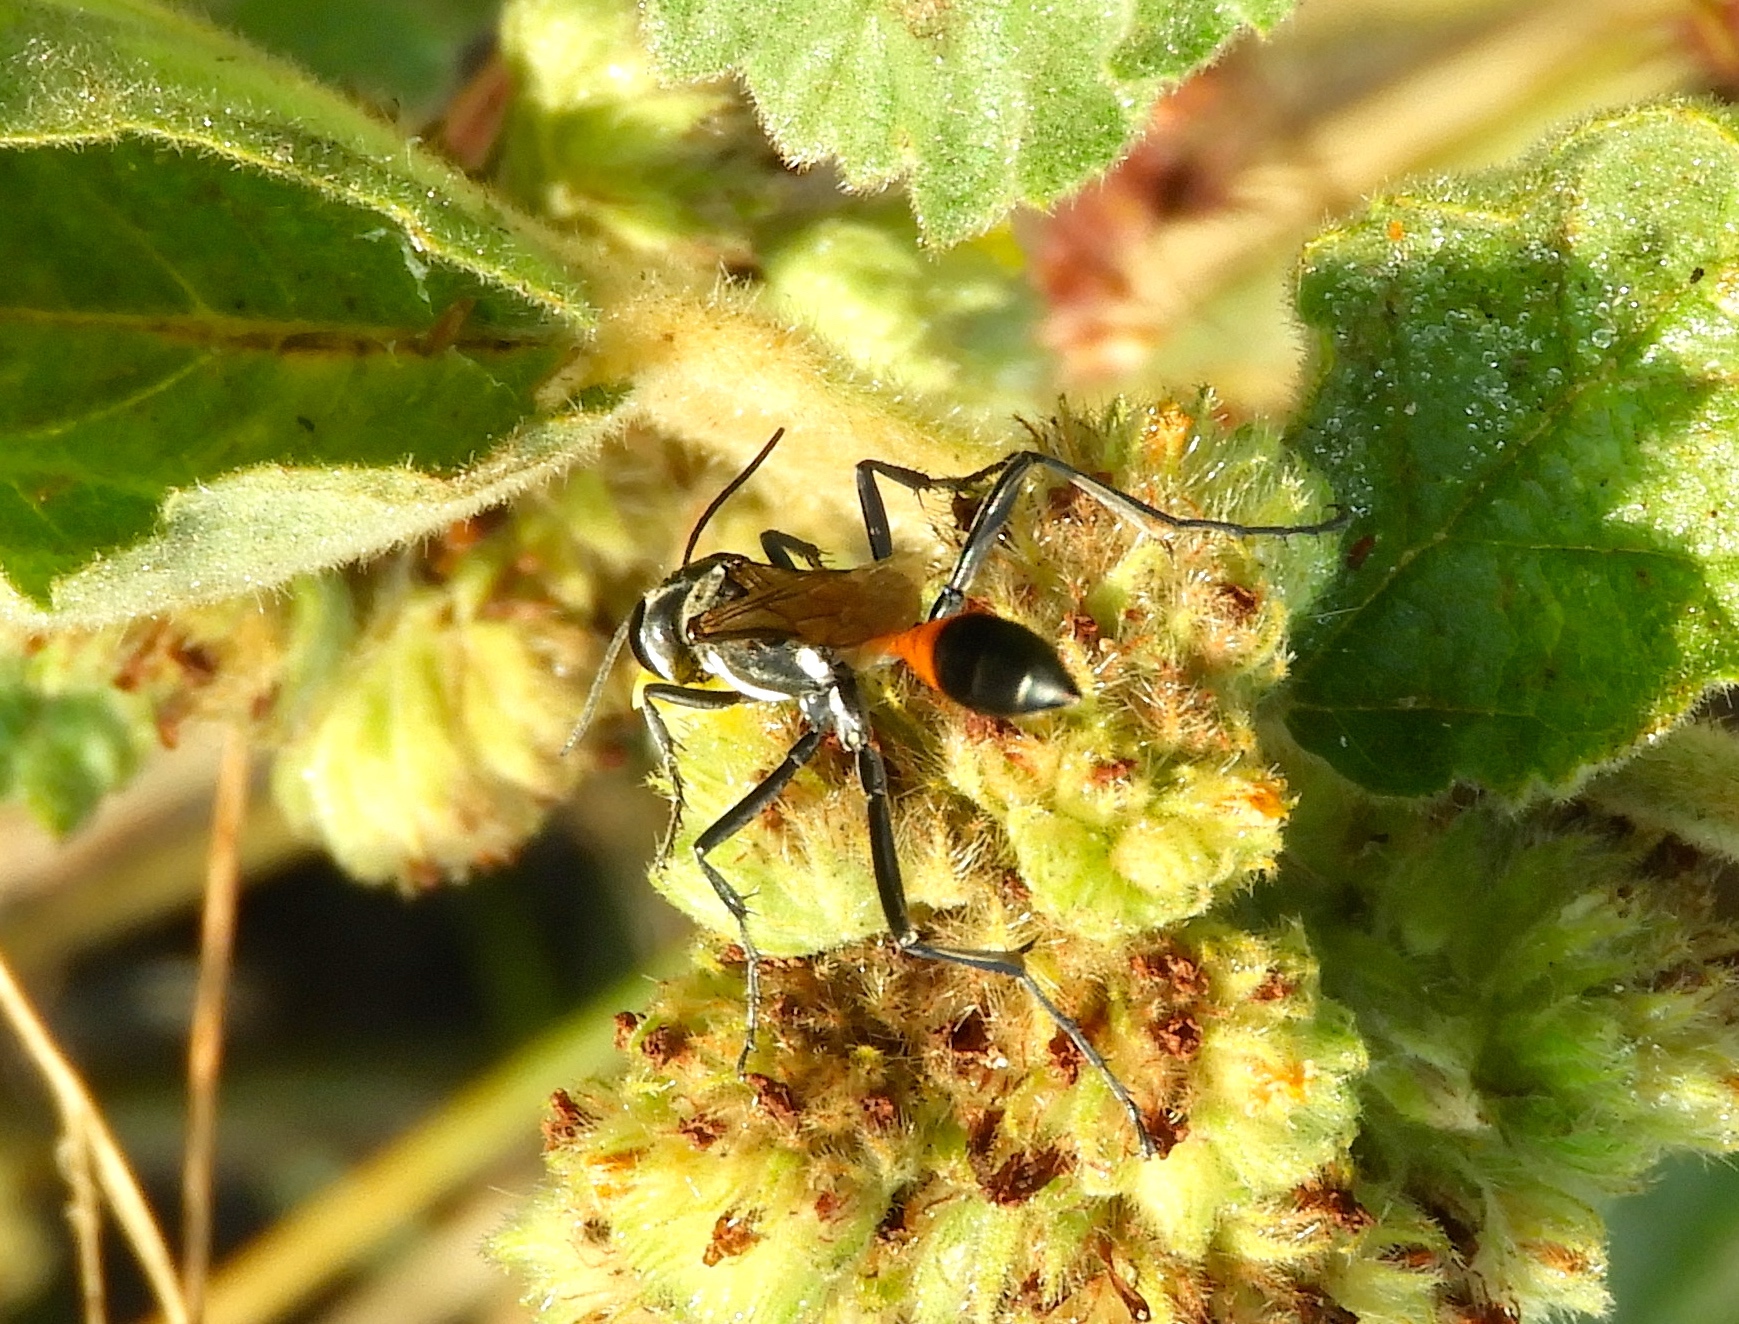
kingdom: Animalia
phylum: Arthropoda
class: Insecta
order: Hymenoptera
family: Sphecidae
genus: Ammophila
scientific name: Ammophila
